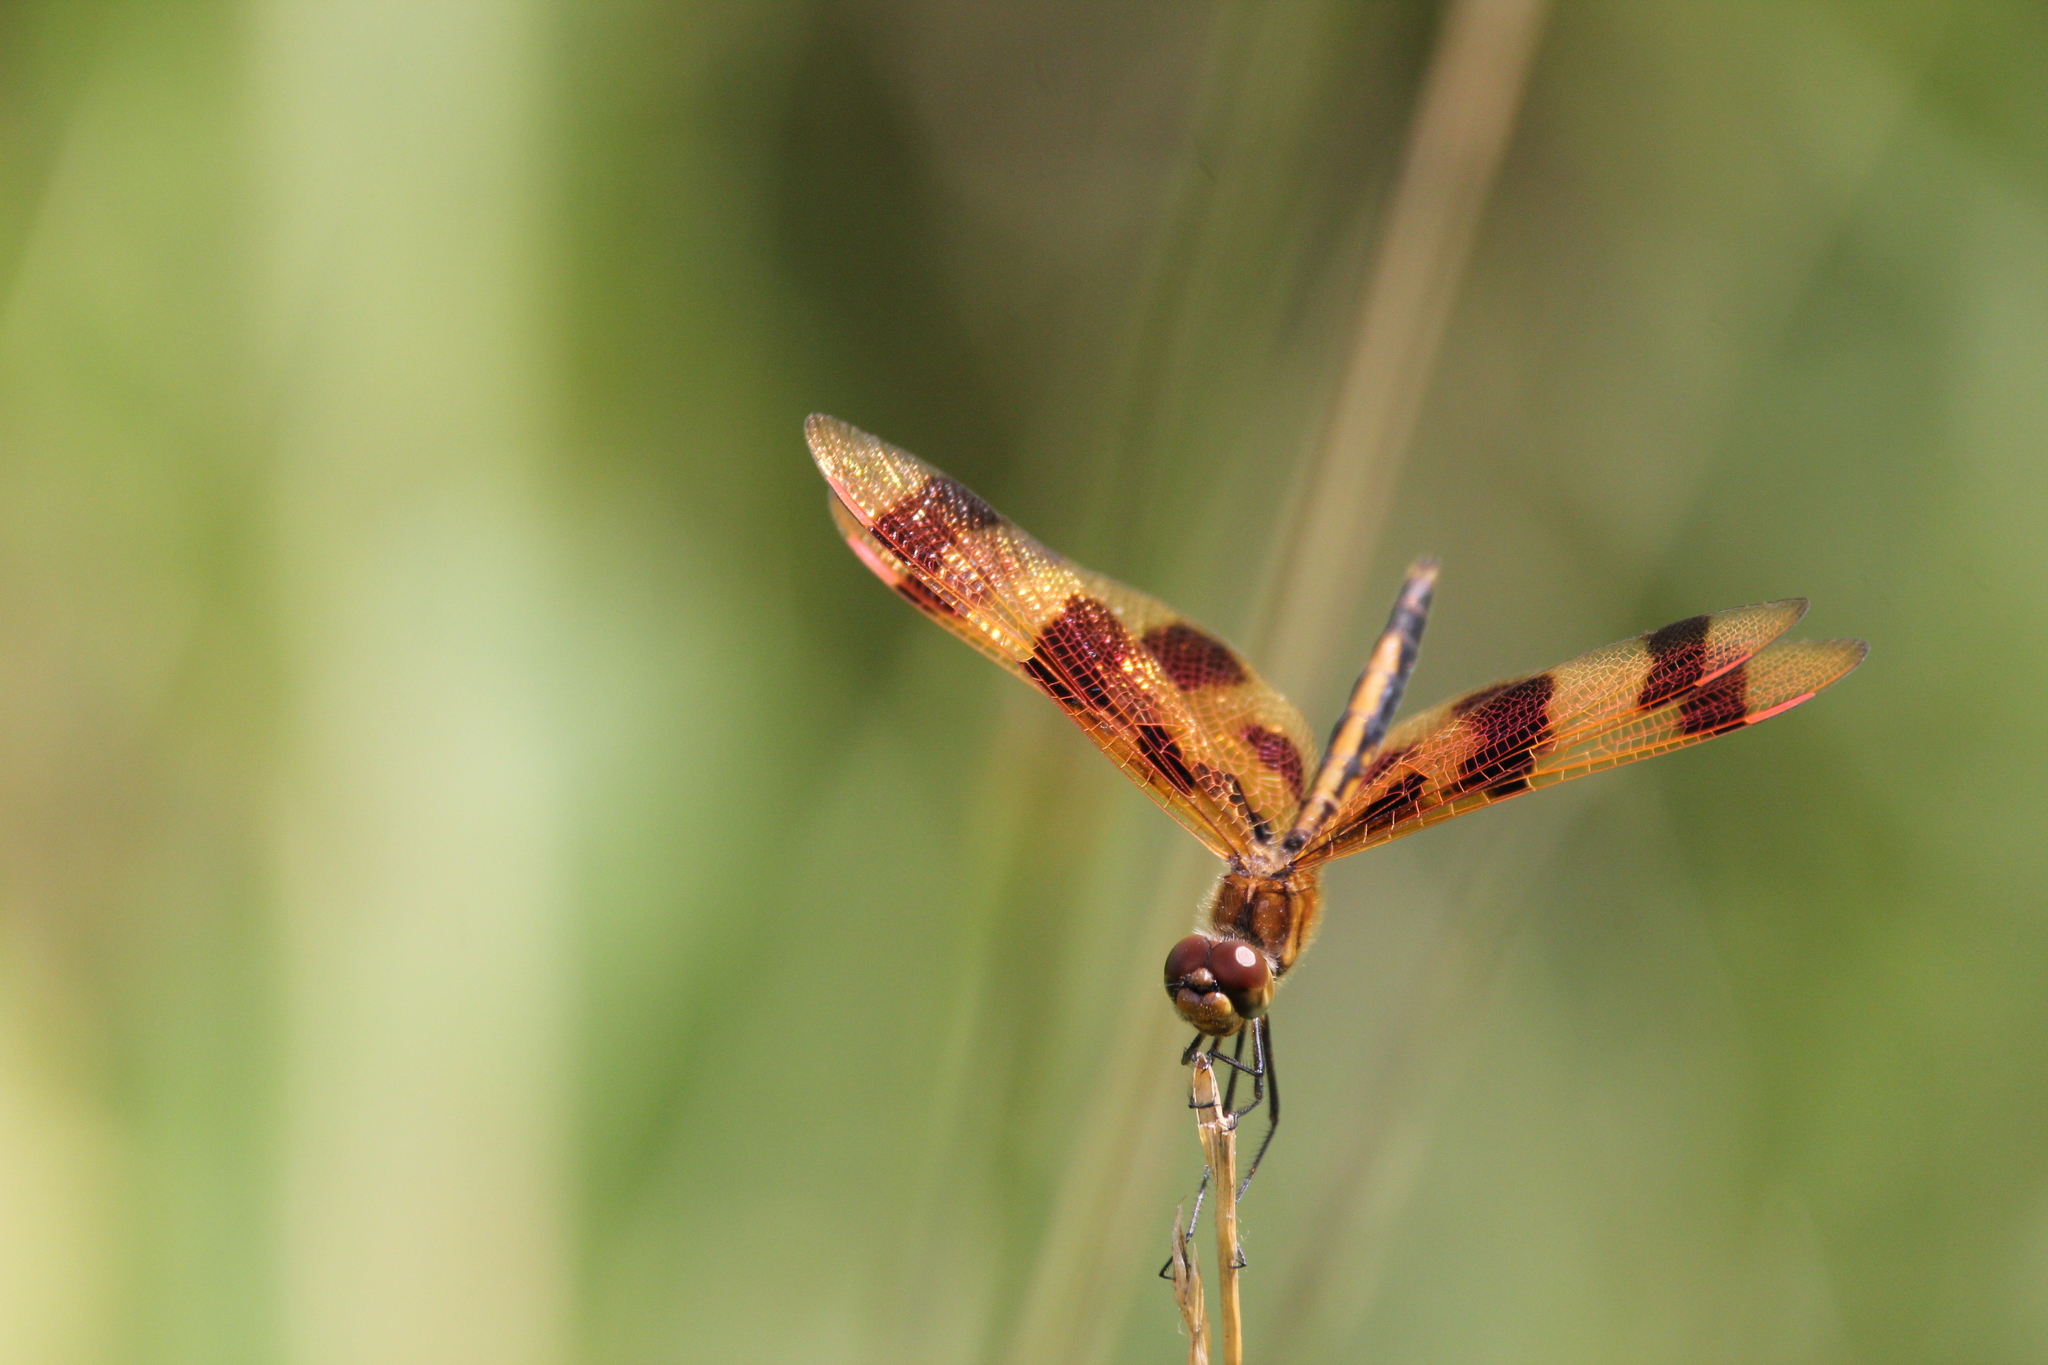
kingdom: Animalia
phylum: Arthropoda
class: Insecta
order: Odonata
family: Libellulidae
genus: Celithemis
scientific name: Celithemis eponina
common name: Halloween pennant
